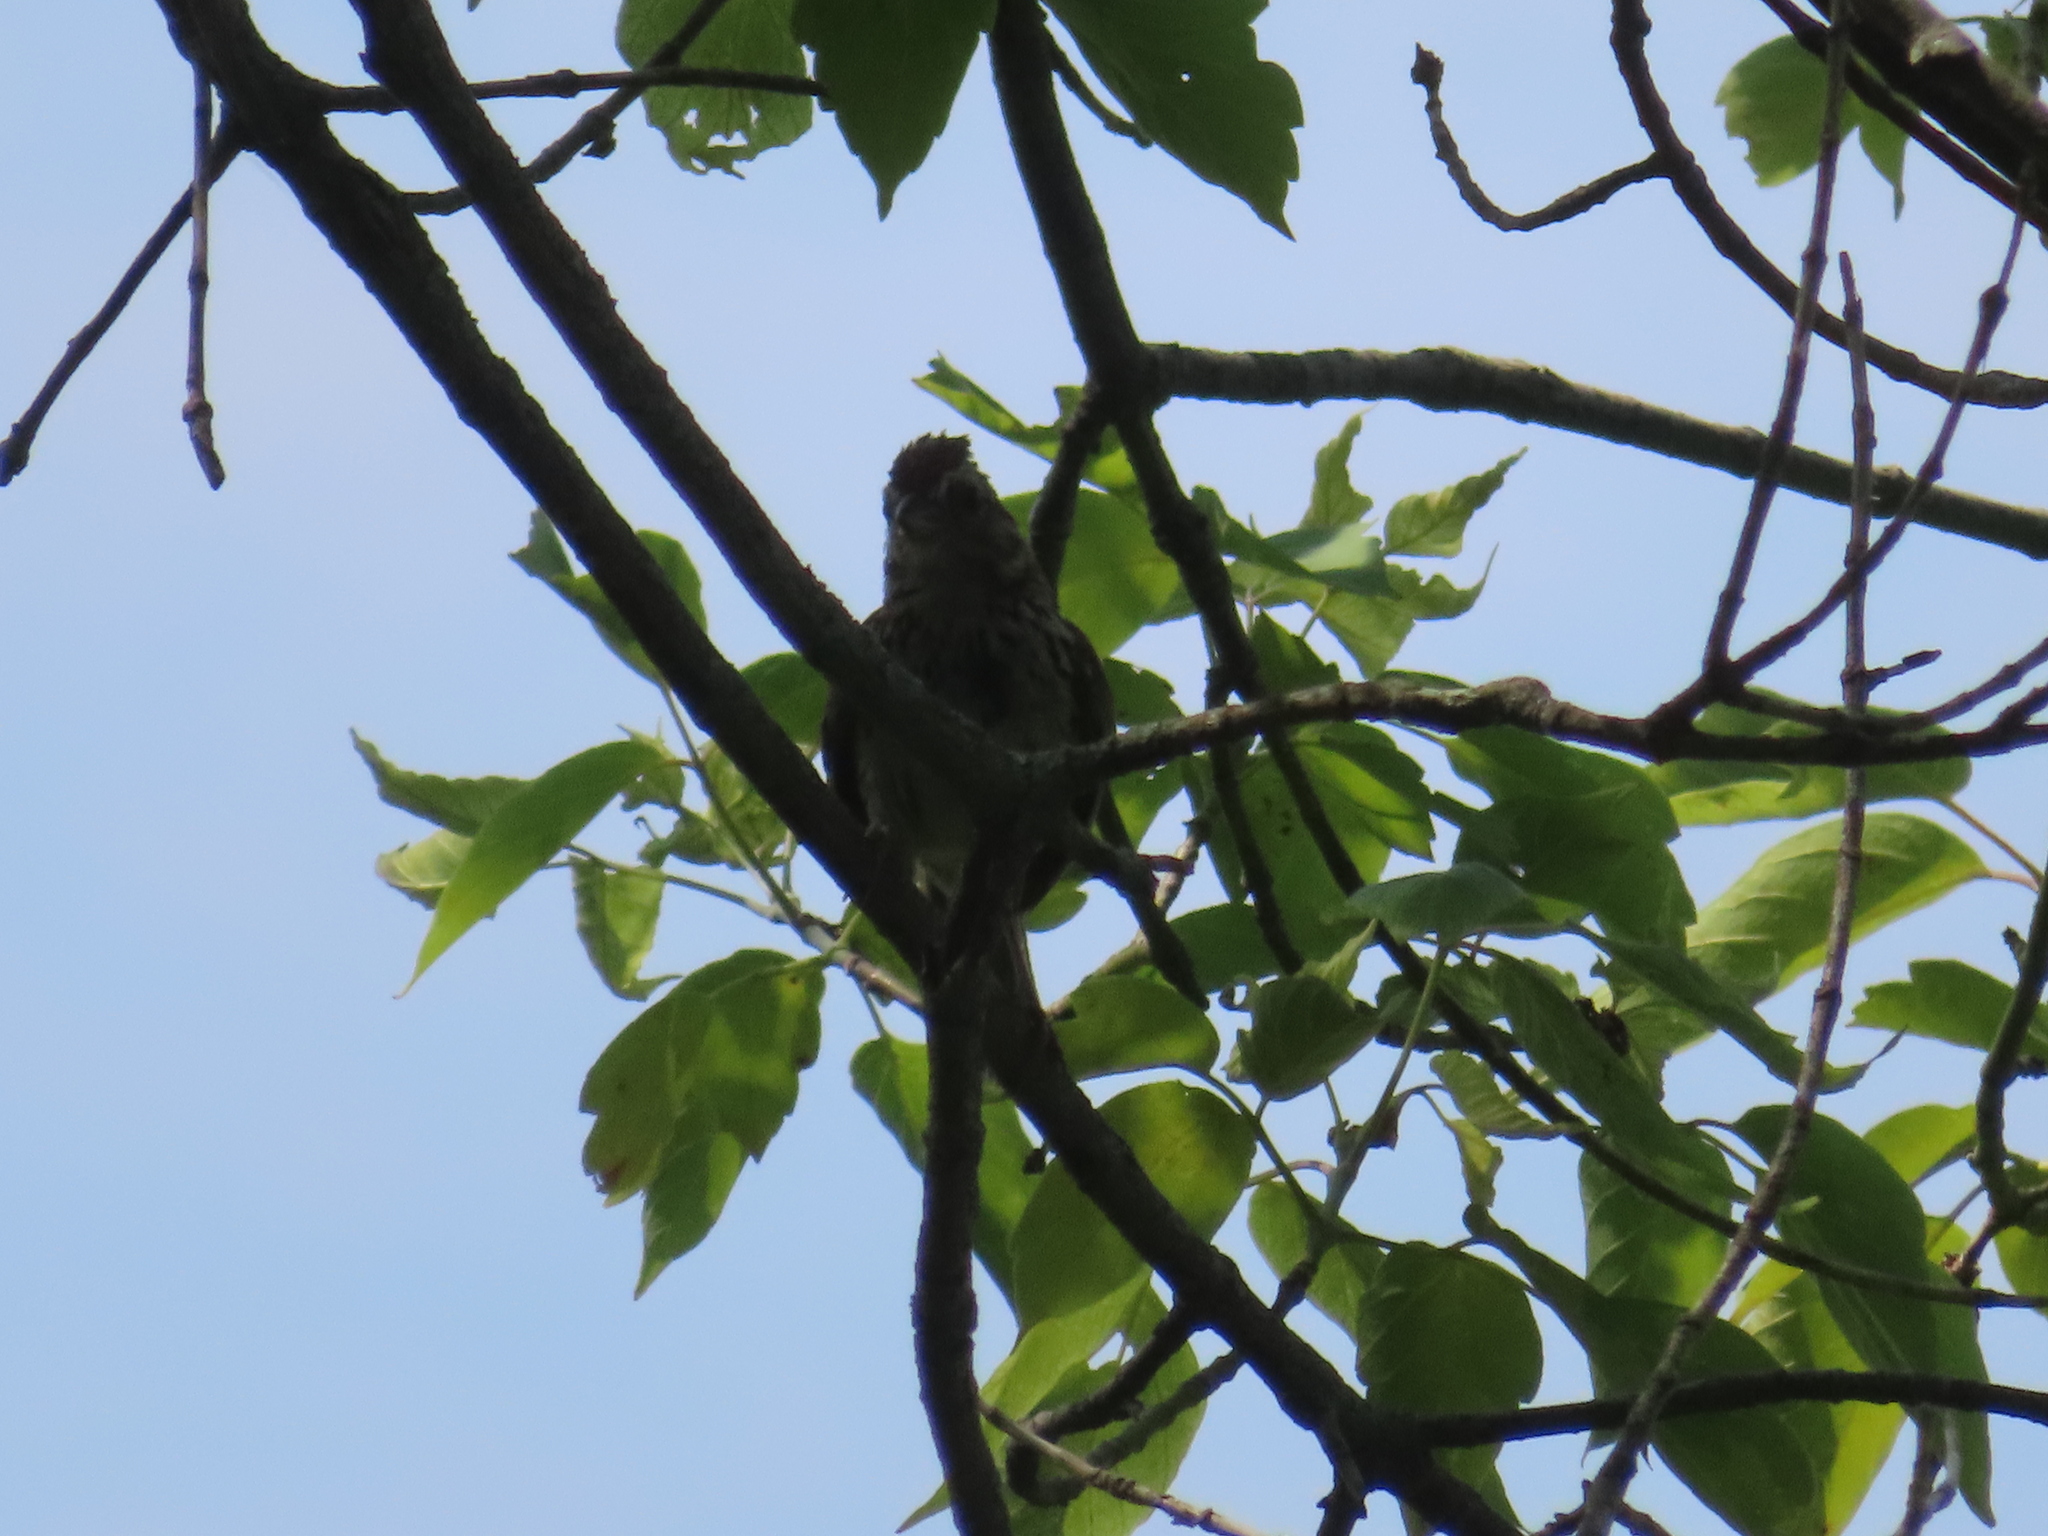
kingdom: Animalia
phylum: Chordata
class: Aves
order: Passeriformes
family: Passerellidae
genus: Melospiza
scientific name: Melospiza melodia
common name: Song sparrow
